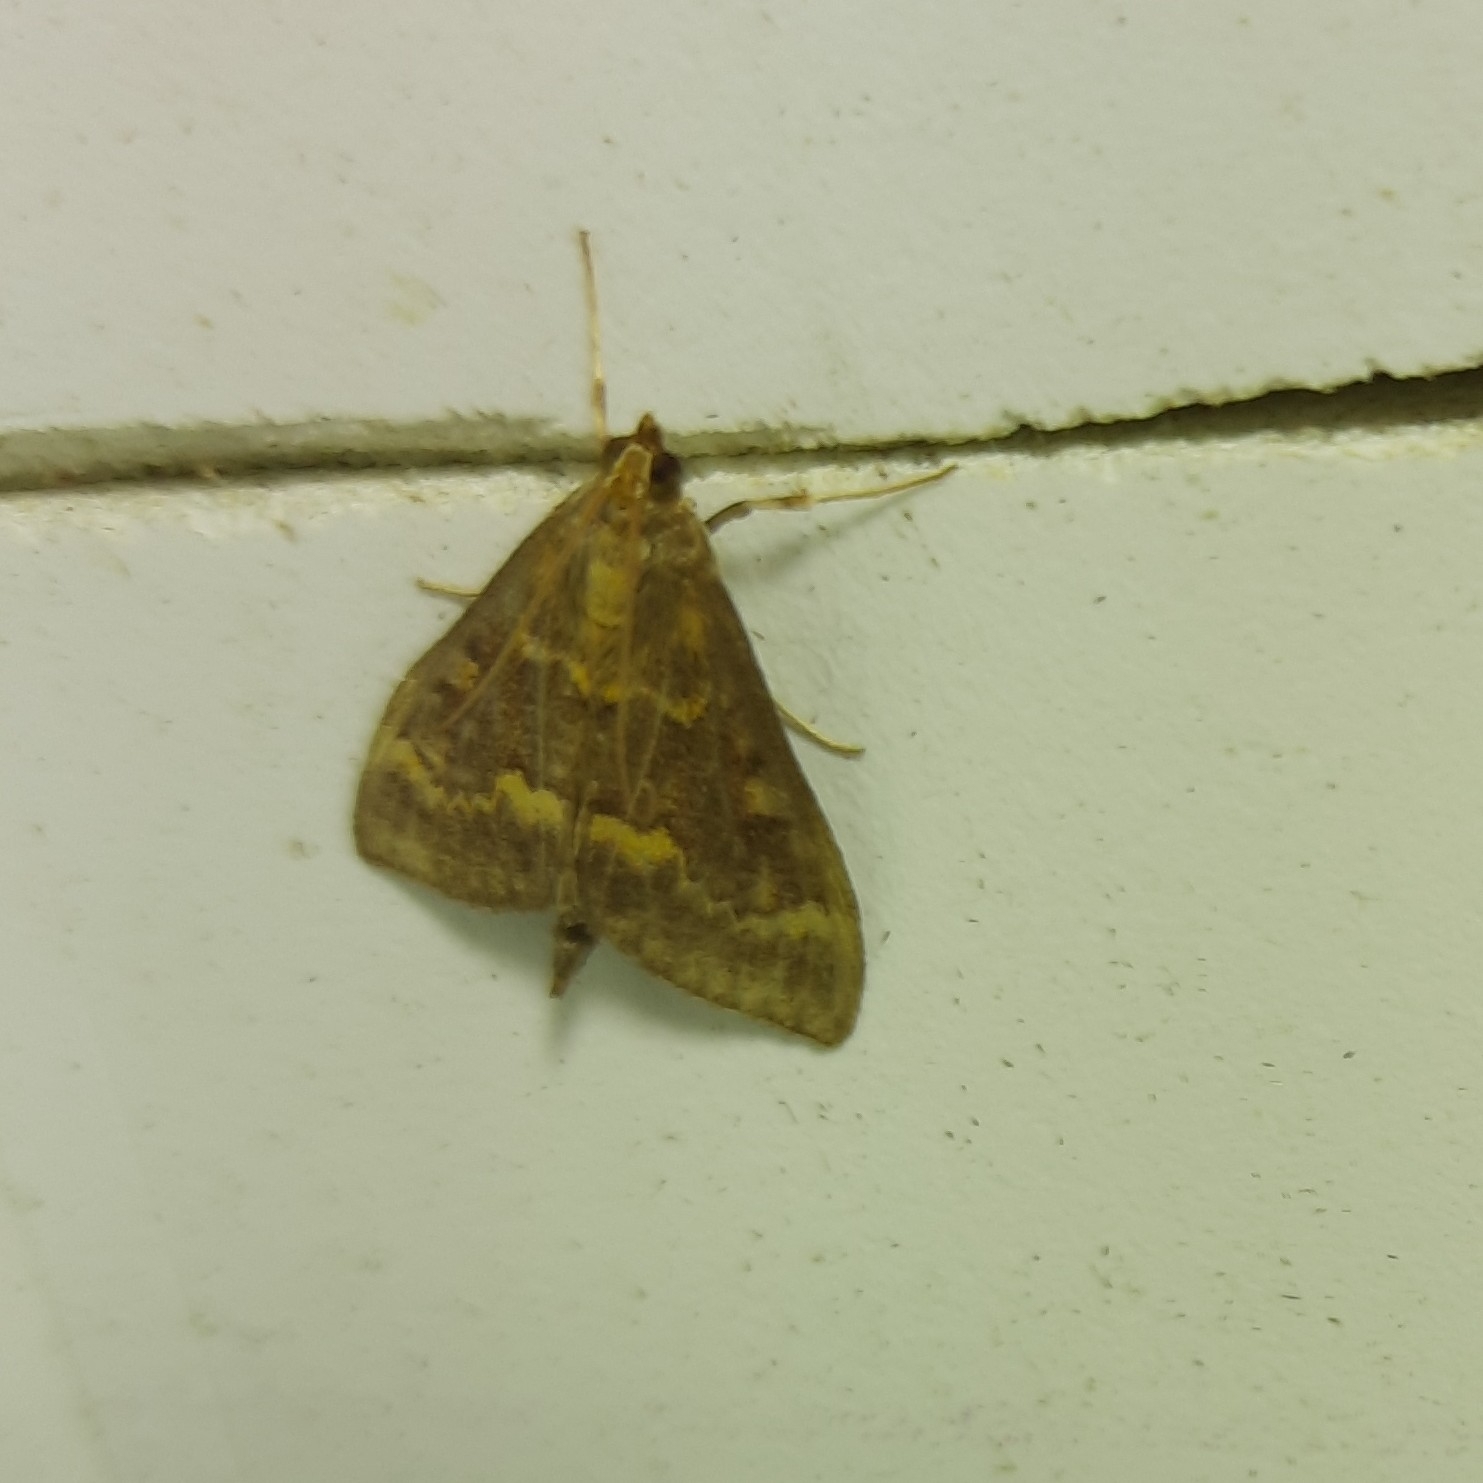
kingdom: Animalia
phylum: Arthropoda
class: Insecta
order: Lepidoptera
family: Crambidae
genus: Ostrinia
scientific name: Ostrinia nubilalis
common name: European corn borer
